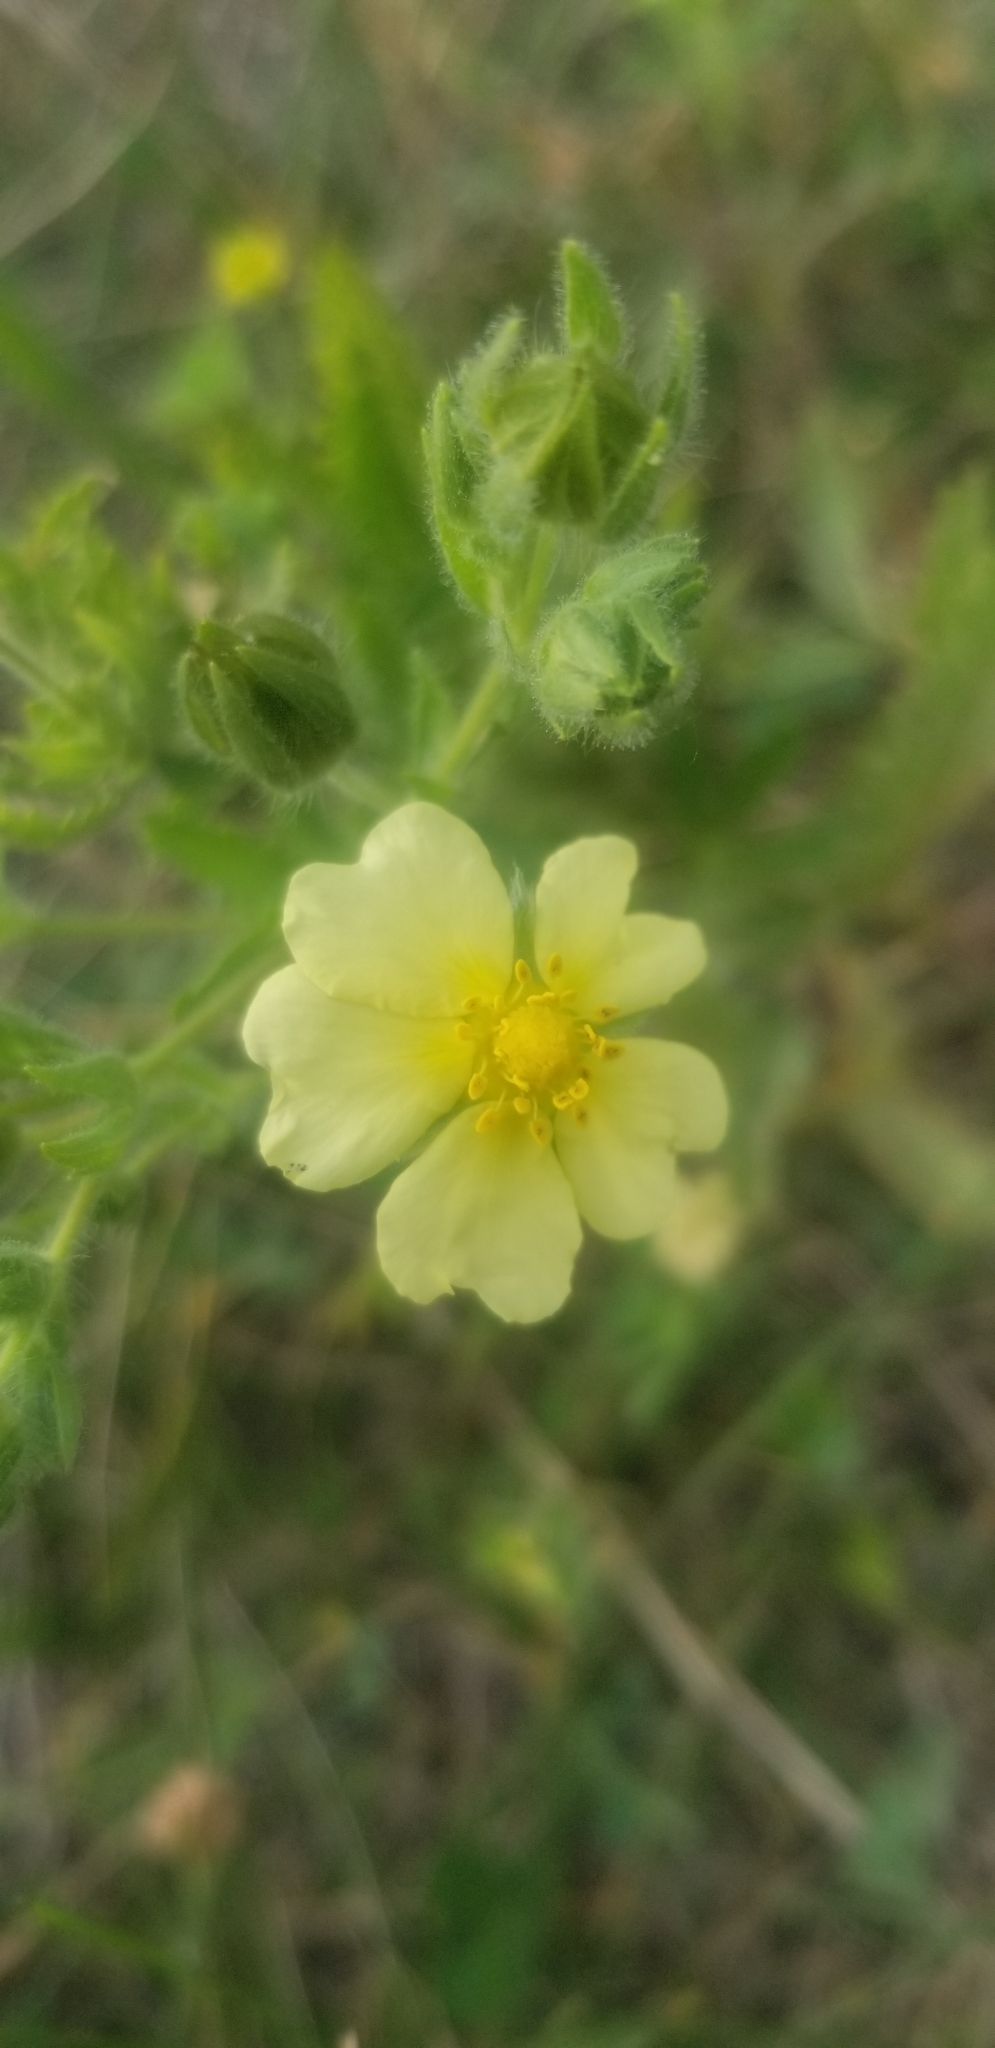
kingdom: Plantae
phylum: Tracheophyta
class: Magnoliopsida
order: Rosales
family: Rosaceae
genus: Potentilla
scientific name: Potentilla recta
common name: Sulphur cinquefoil
